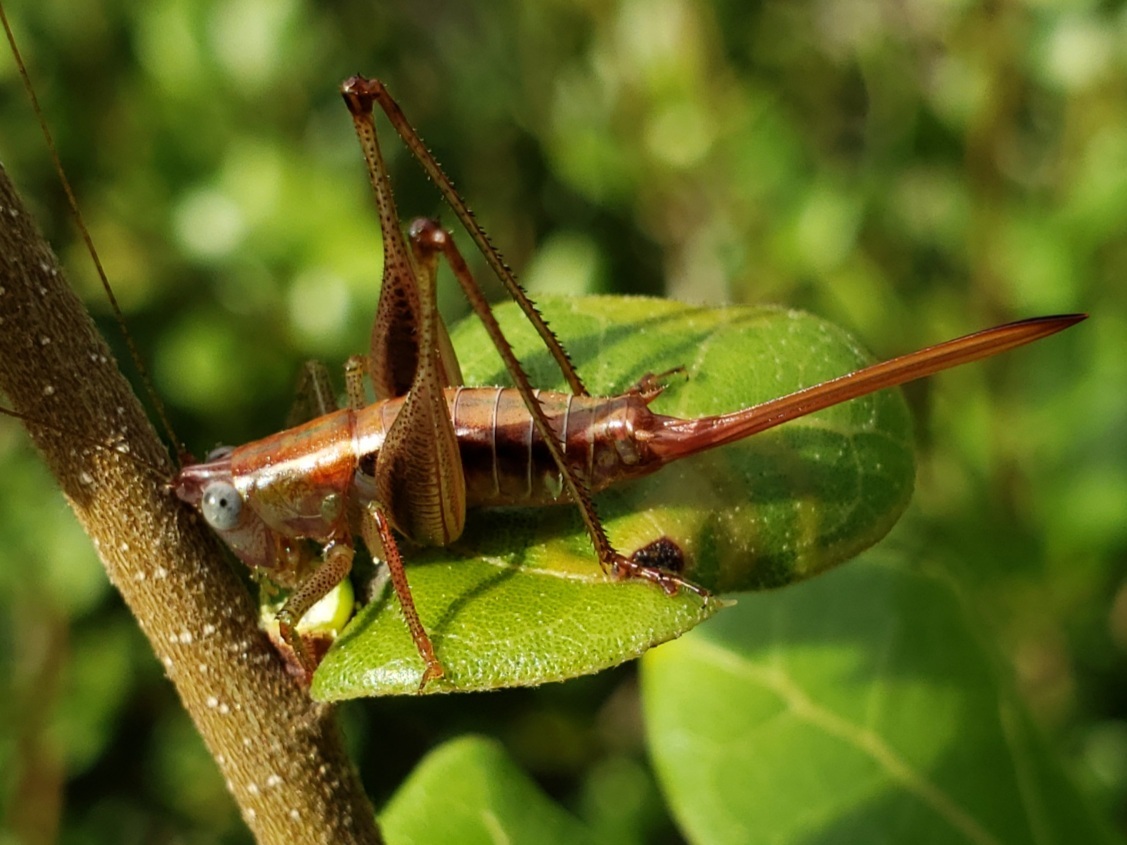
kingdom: Animalia
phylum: Arthropoda
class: Insecta
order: Orthoptera
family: Tettigoniidae
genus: Odontoxiphidium
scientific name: Odontoxiphidium apterum
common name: Wingless meadow katydid
